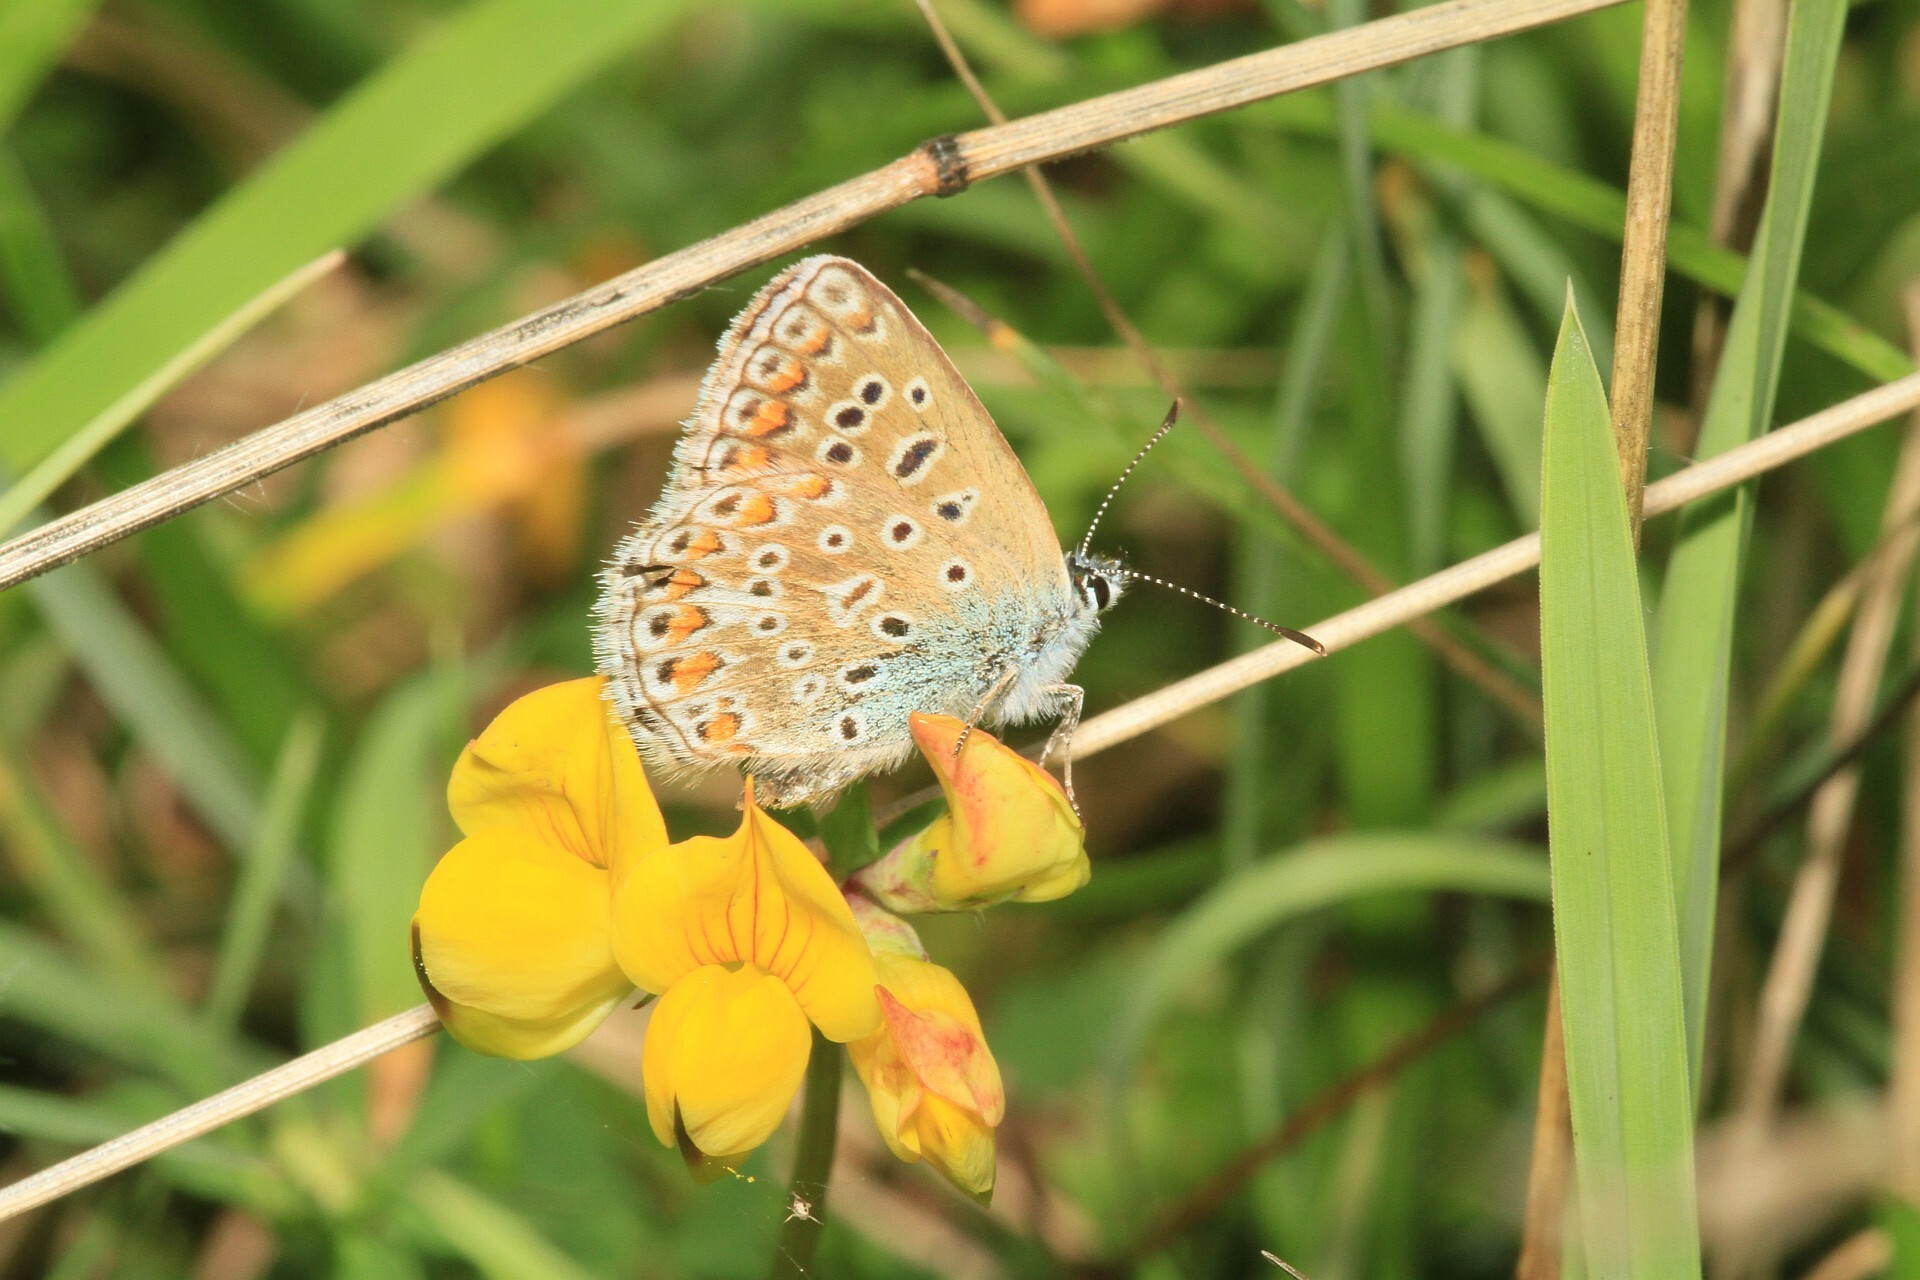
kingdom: Animalia
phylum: Arthropoda
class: Insecta
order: Lepidoptera
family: Lycaenidae
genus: Polyommatus
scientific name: Polyommatus icarus
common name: Common blue
